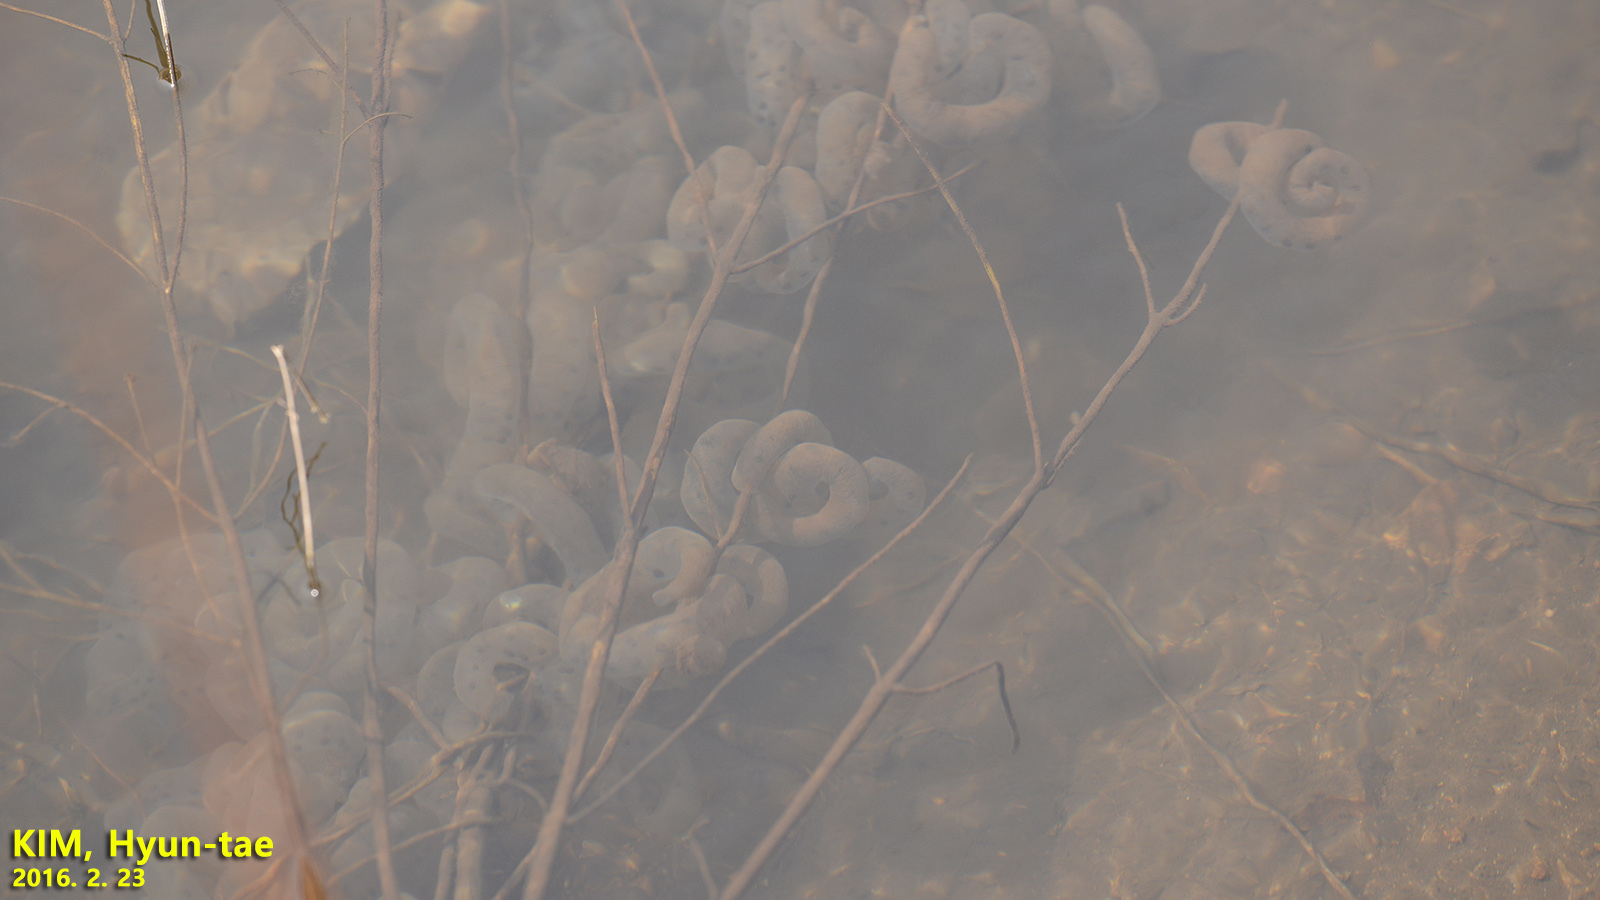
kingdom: Animalia
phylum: Chordata
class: Amphibia
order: Caudata
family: Hynobiidae
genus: Hynobius
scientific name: Hynobius leechii
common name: Gensan salamander
